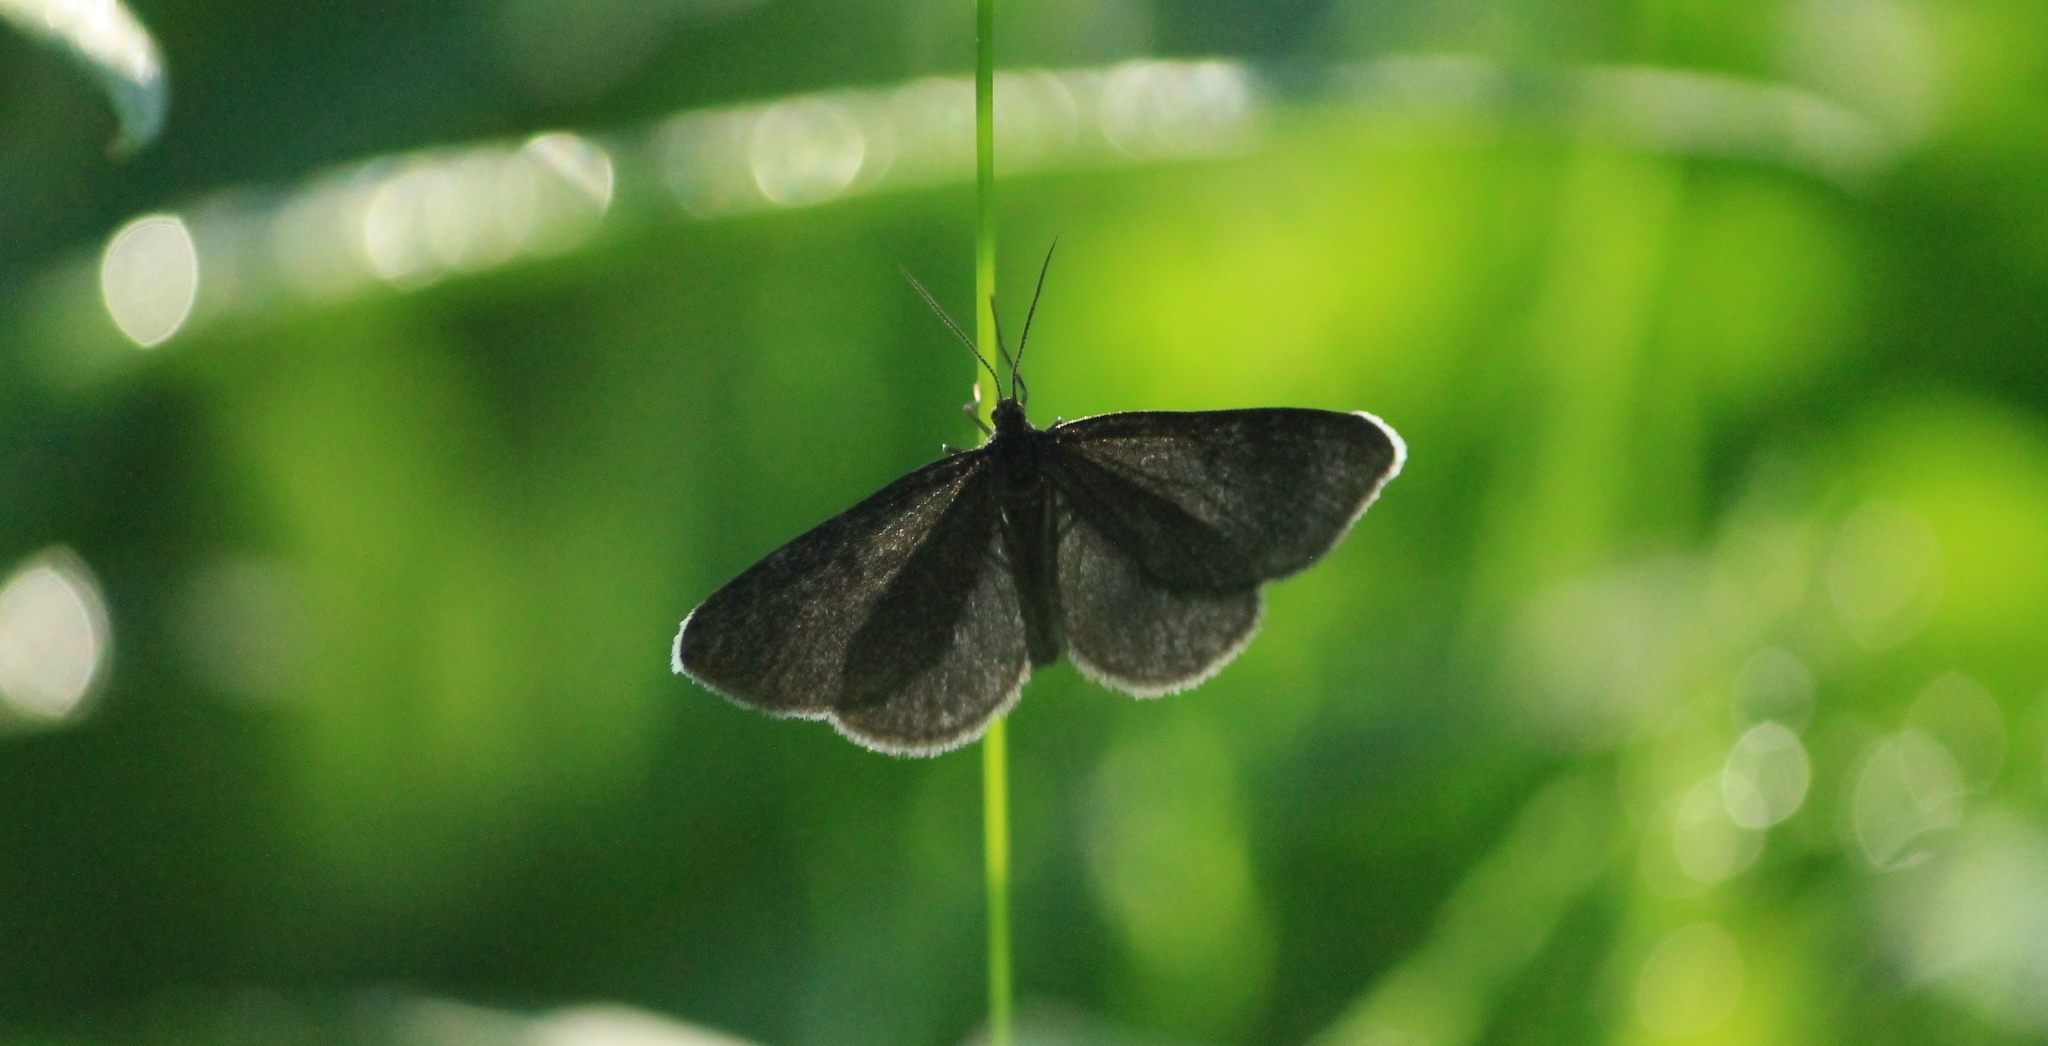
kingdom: Animalia
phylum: Arthropoda
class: Insecta
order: Lepidoptera
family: Geometridae
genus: Odezia
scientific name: Odezia atrata
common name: Chimney sweeper
